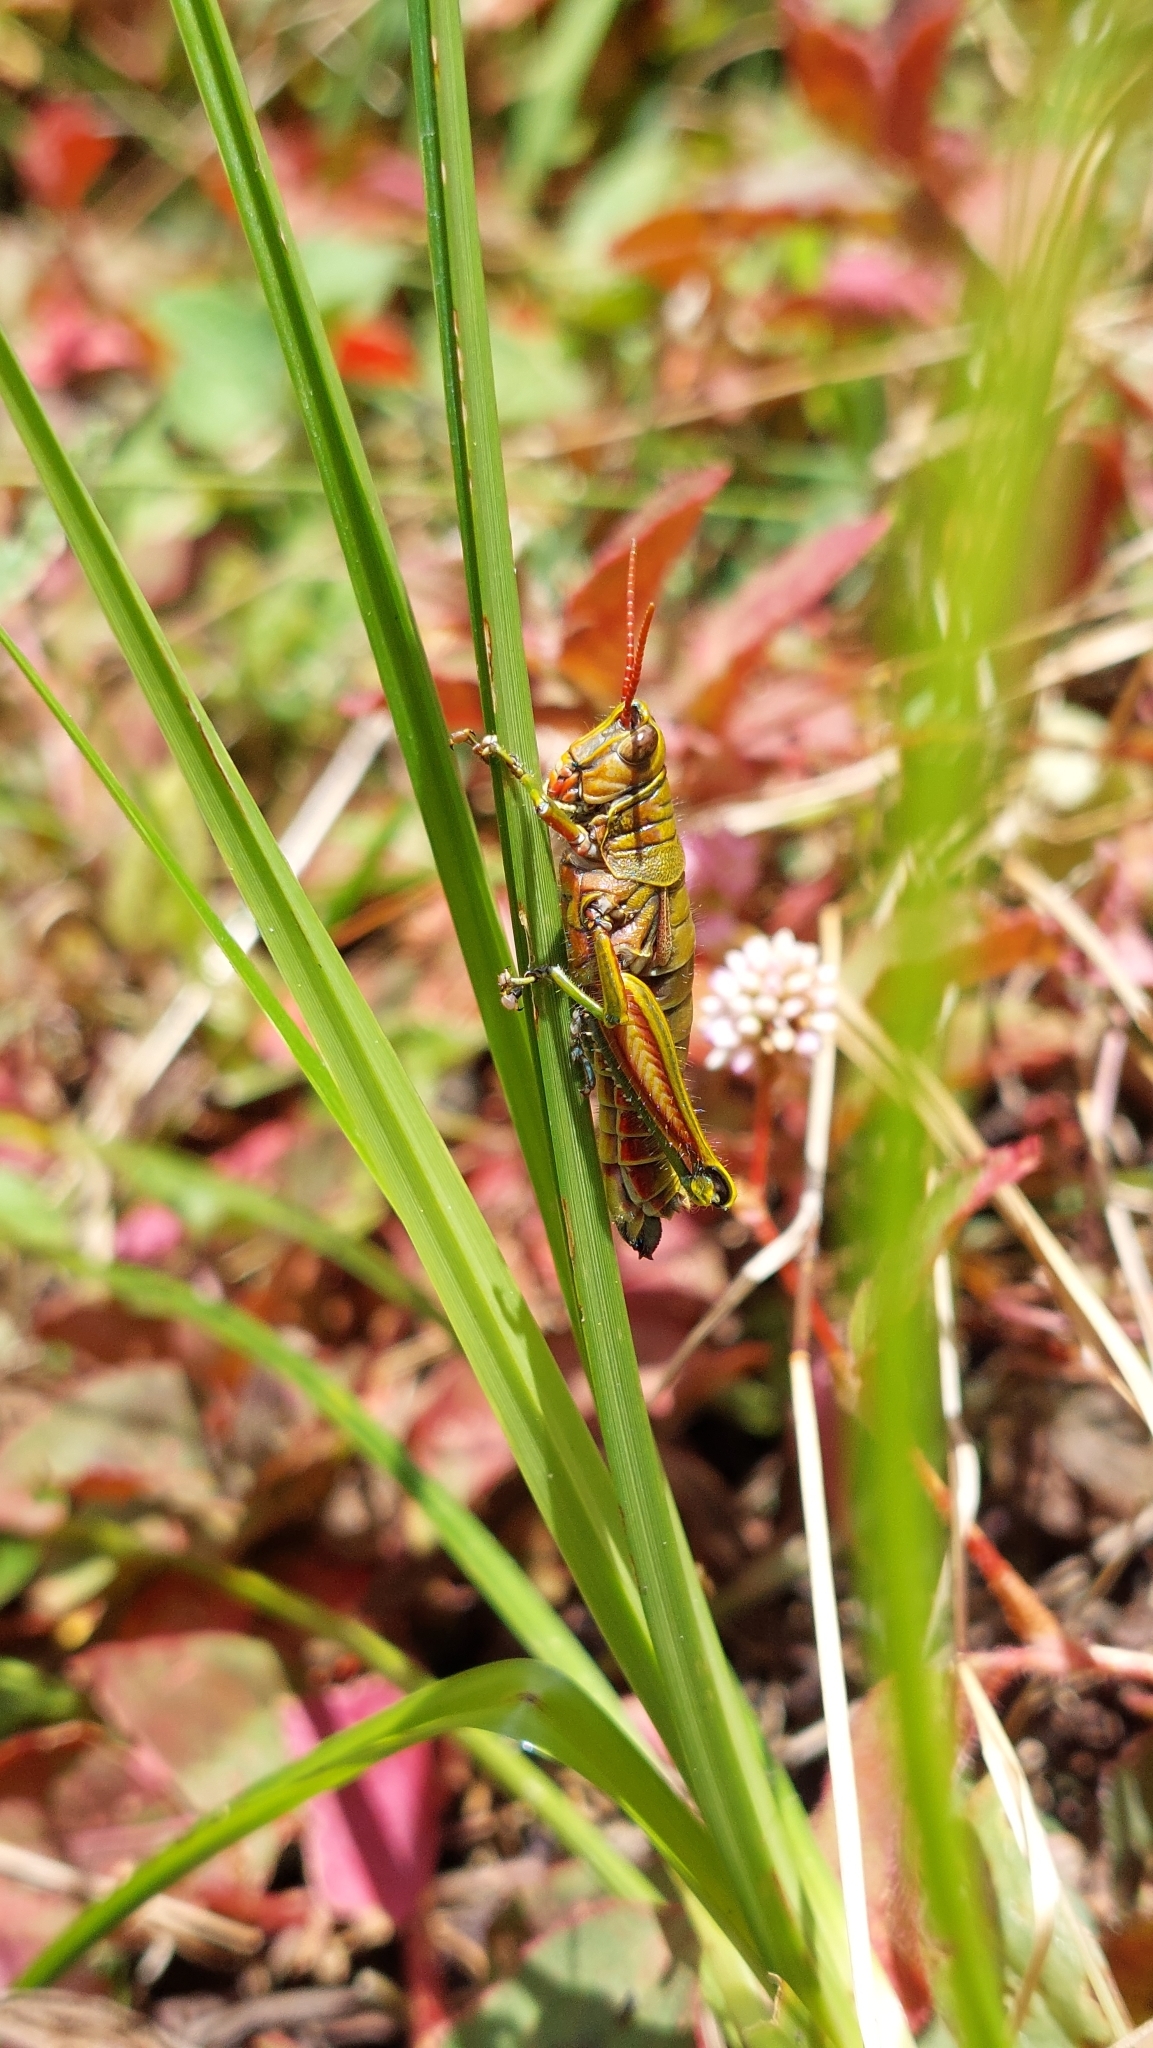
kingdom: Animalia
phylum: Arthropoda
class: Insecta
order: Orthoptera
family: Acrididae
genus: Agesander
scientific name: Agesander ruficornis
